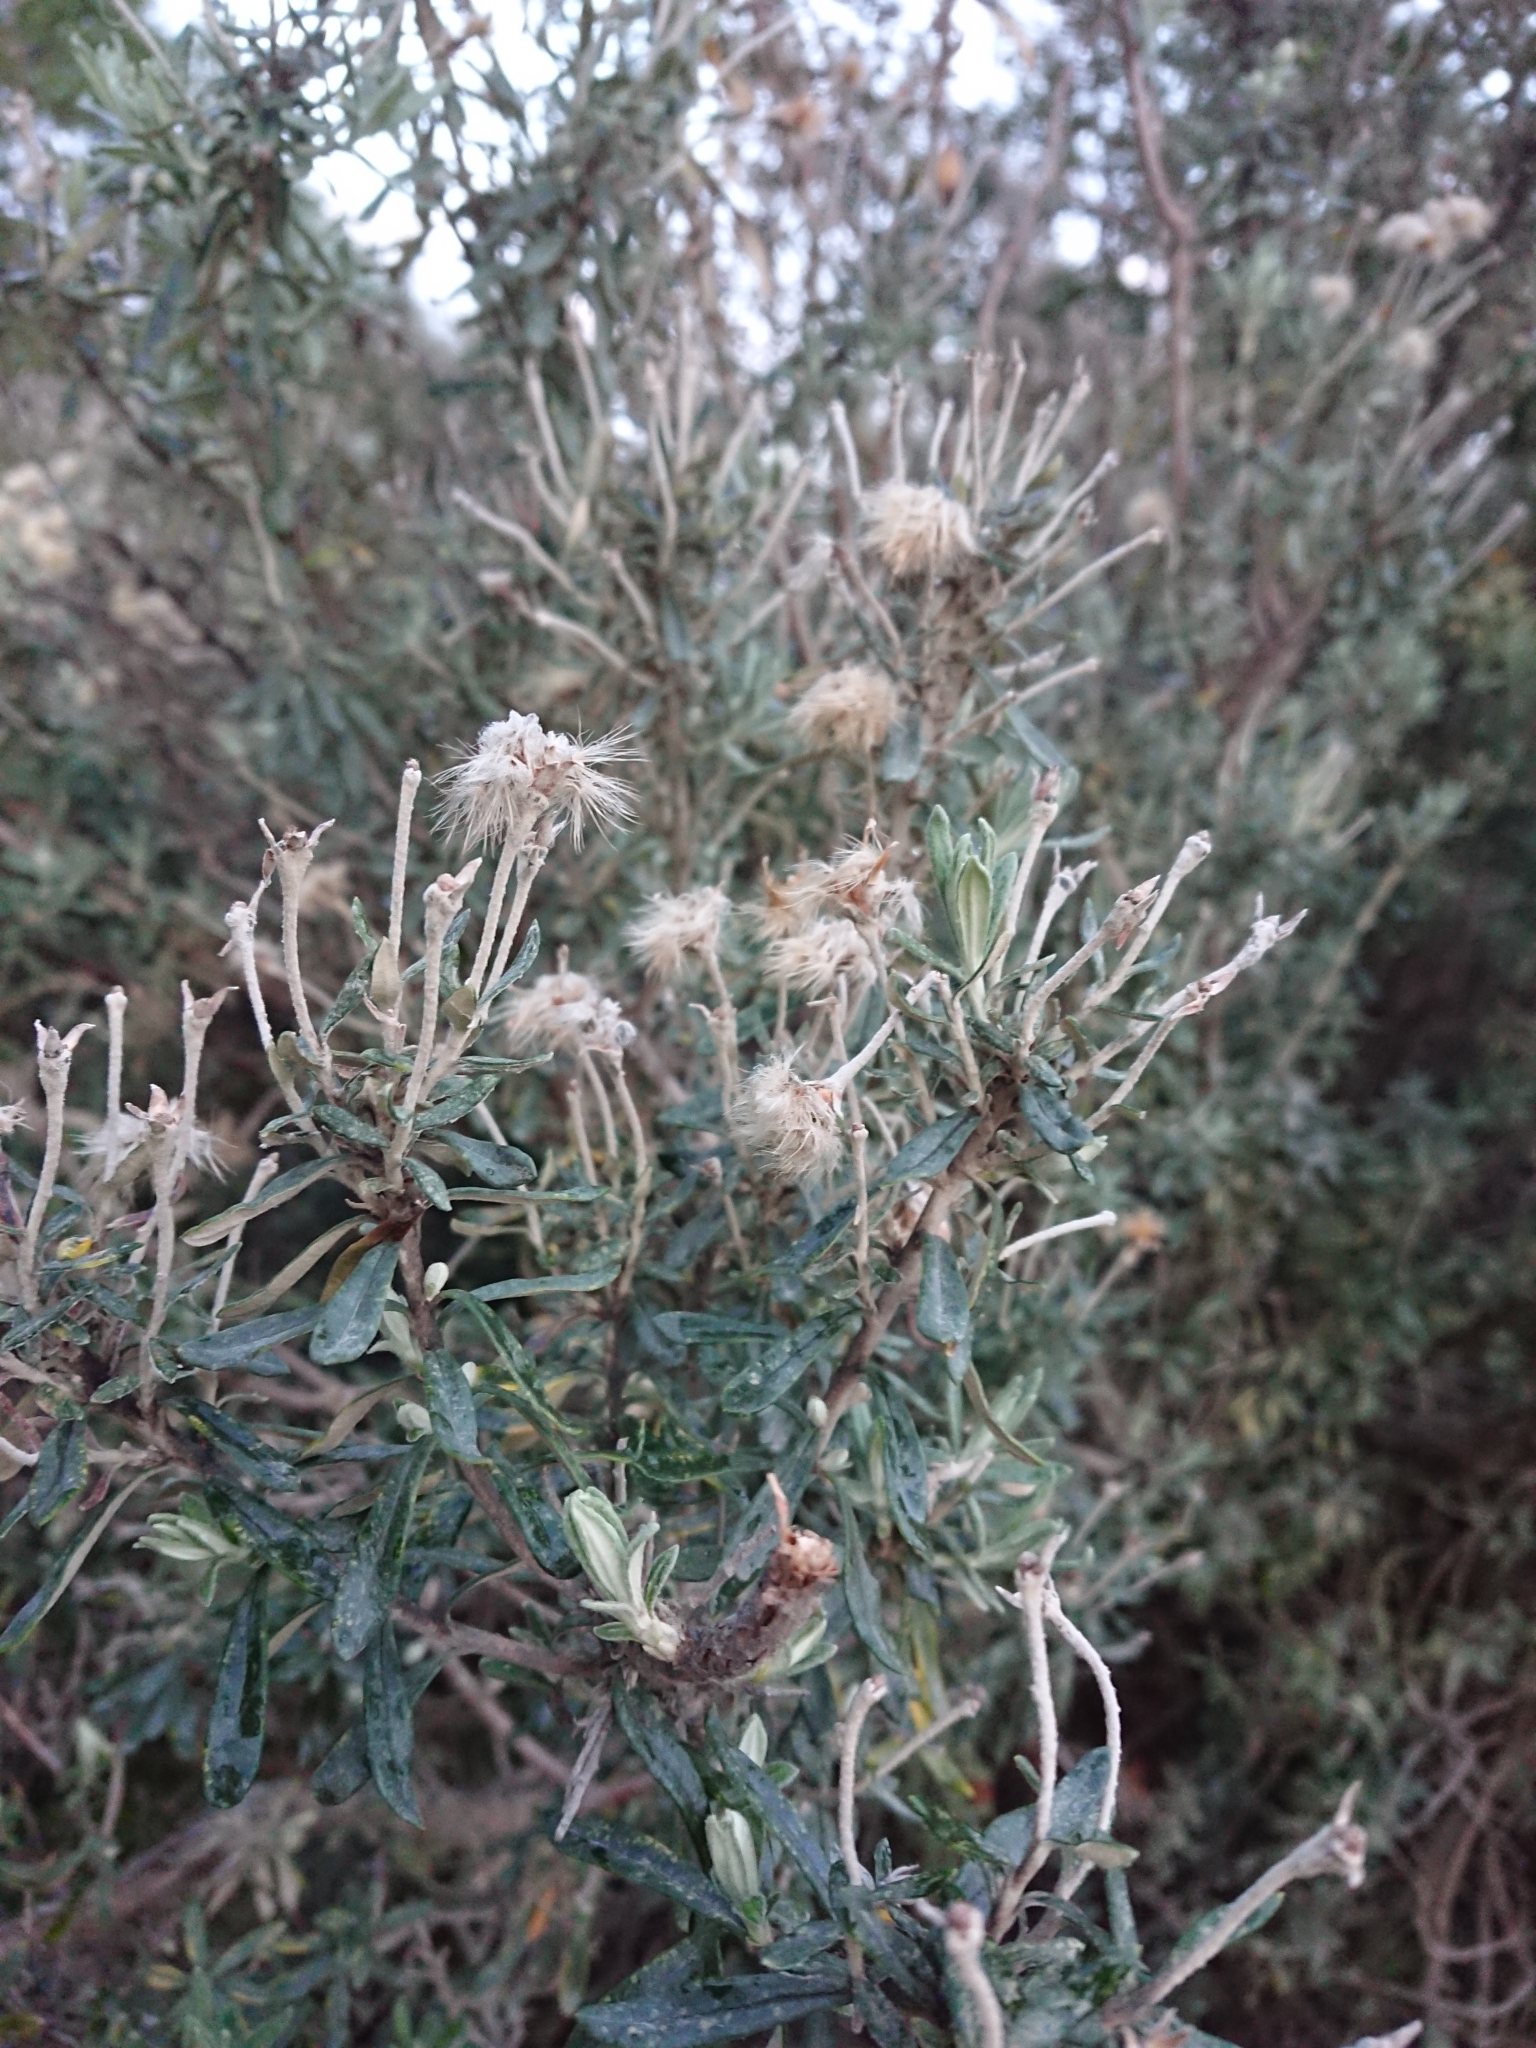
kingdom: Plantae
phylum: Tracheophyta
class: Magnoliopsida
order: Asterales
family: Asteraceae
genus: Chiliotrichum
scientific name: Chiliotrichum diffusum
